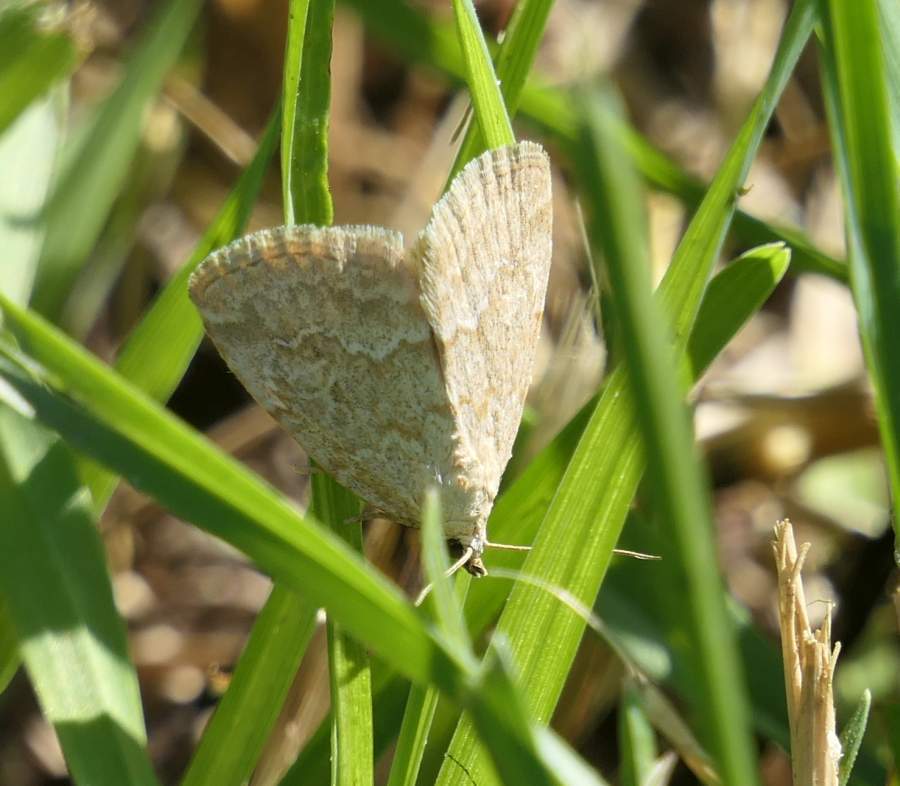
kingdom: Animalia
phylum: Arthropoda
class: Insecta
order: Lepidoptera
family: Noctuidae
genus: Protodeltote
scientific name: Protodeltote albidula
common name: Pale glyph
